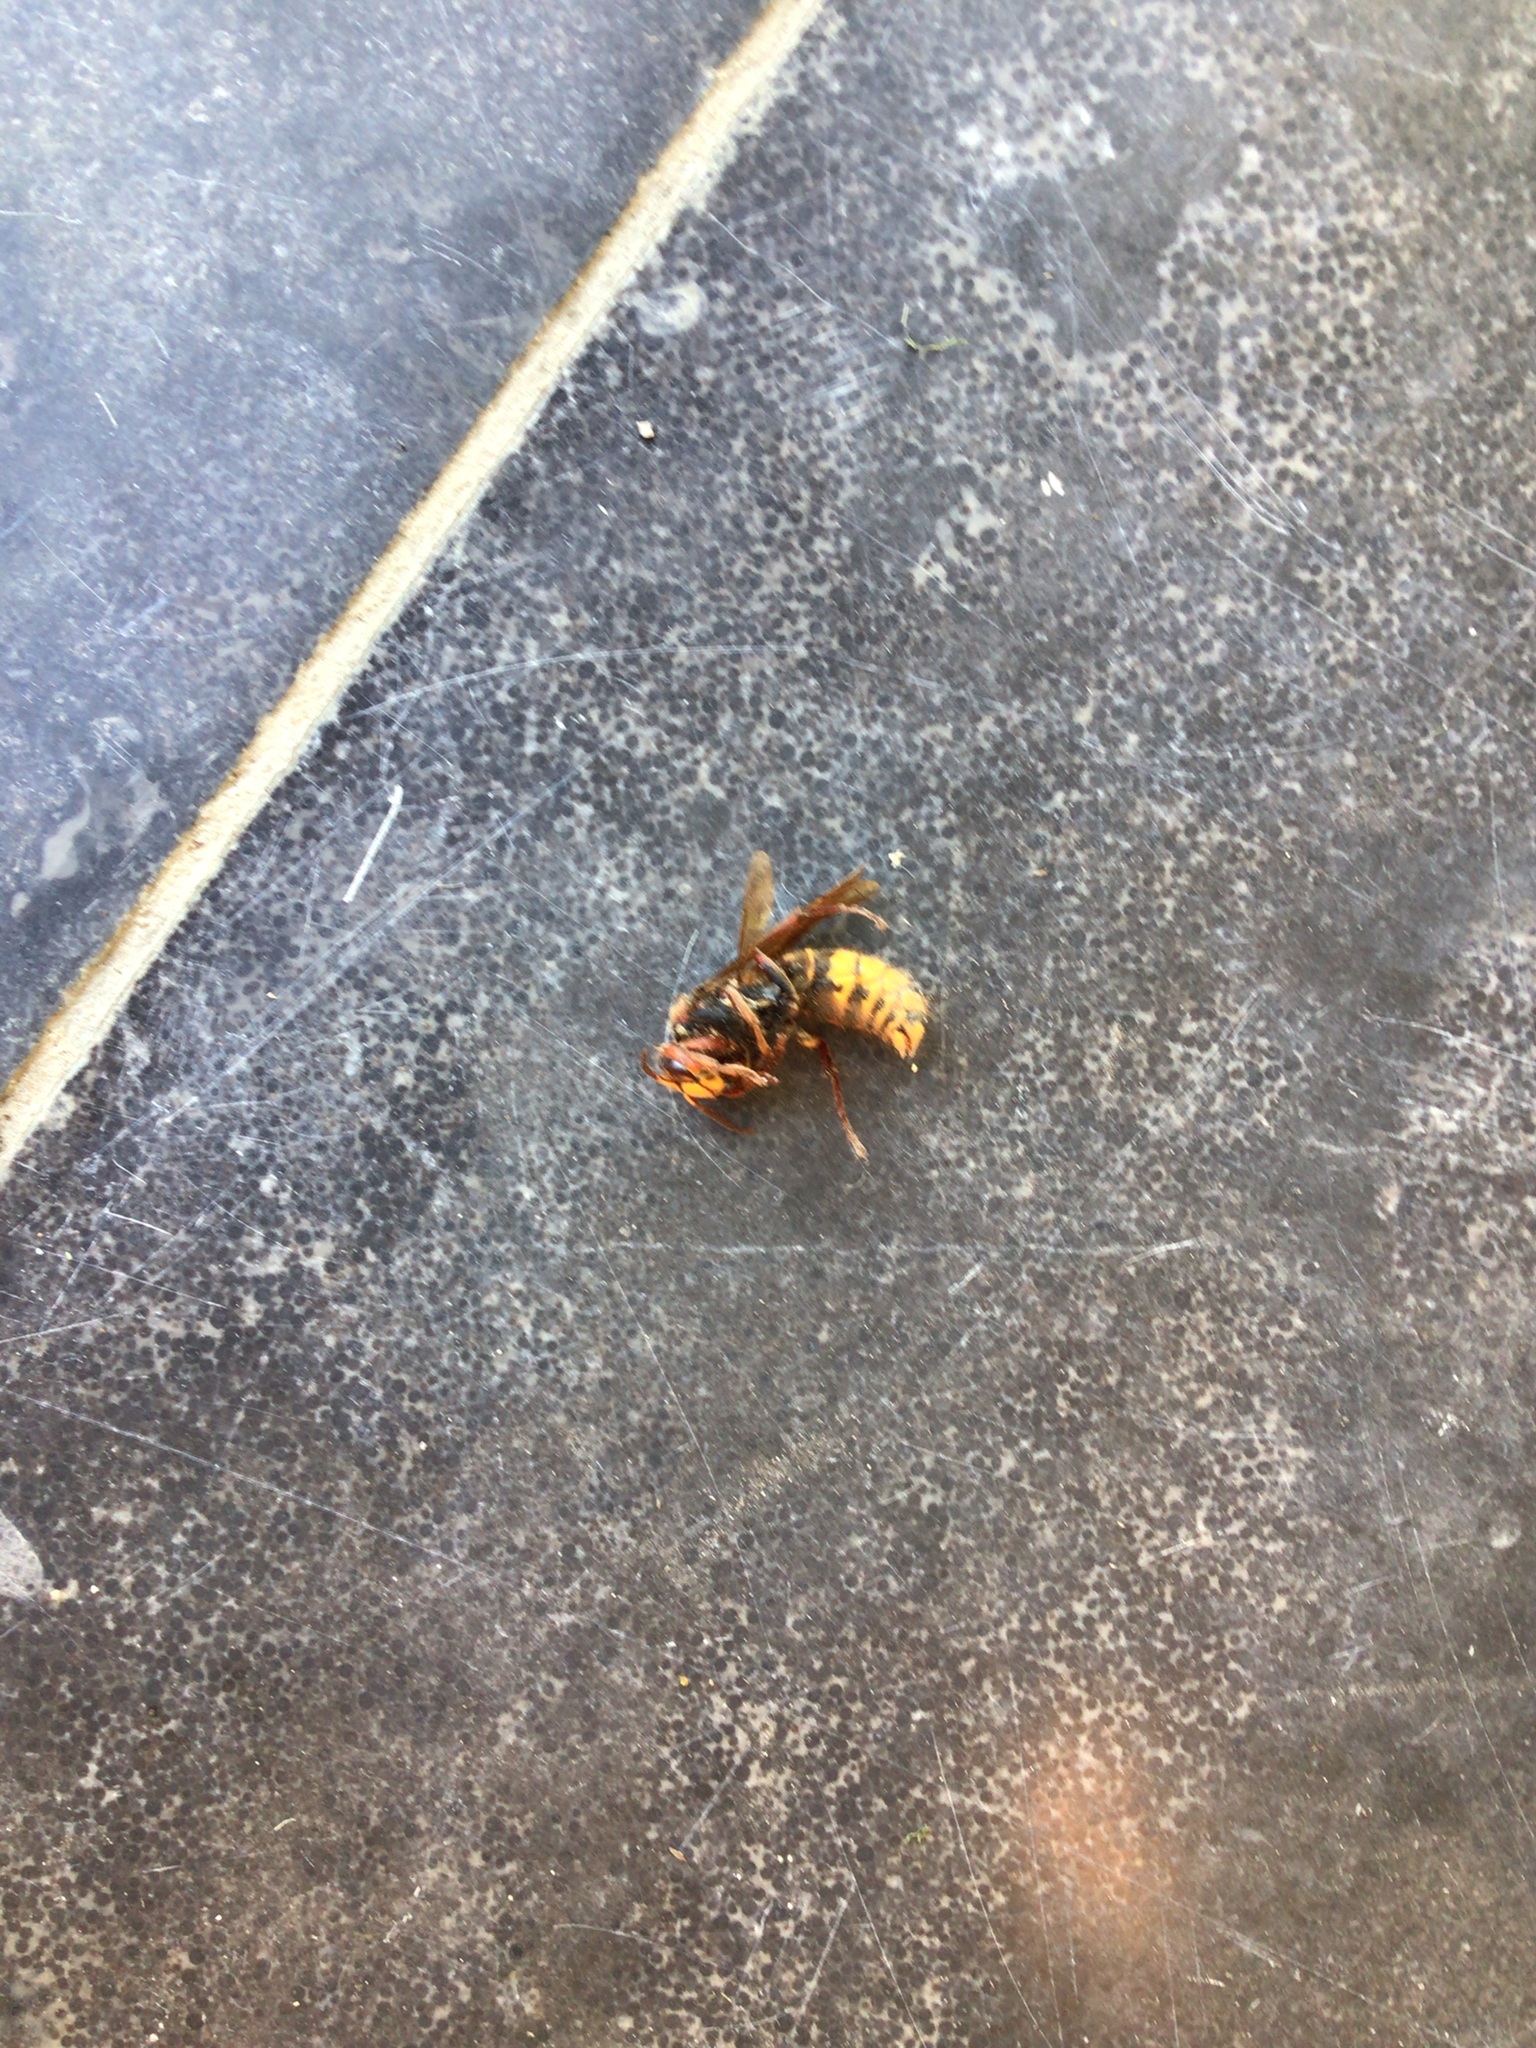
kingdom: Animalia
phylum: Arthropoda
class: Insecta
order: Hymenoptera
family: Vespidae
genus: Vespa
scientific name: Vespa crabro
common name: Hornet
